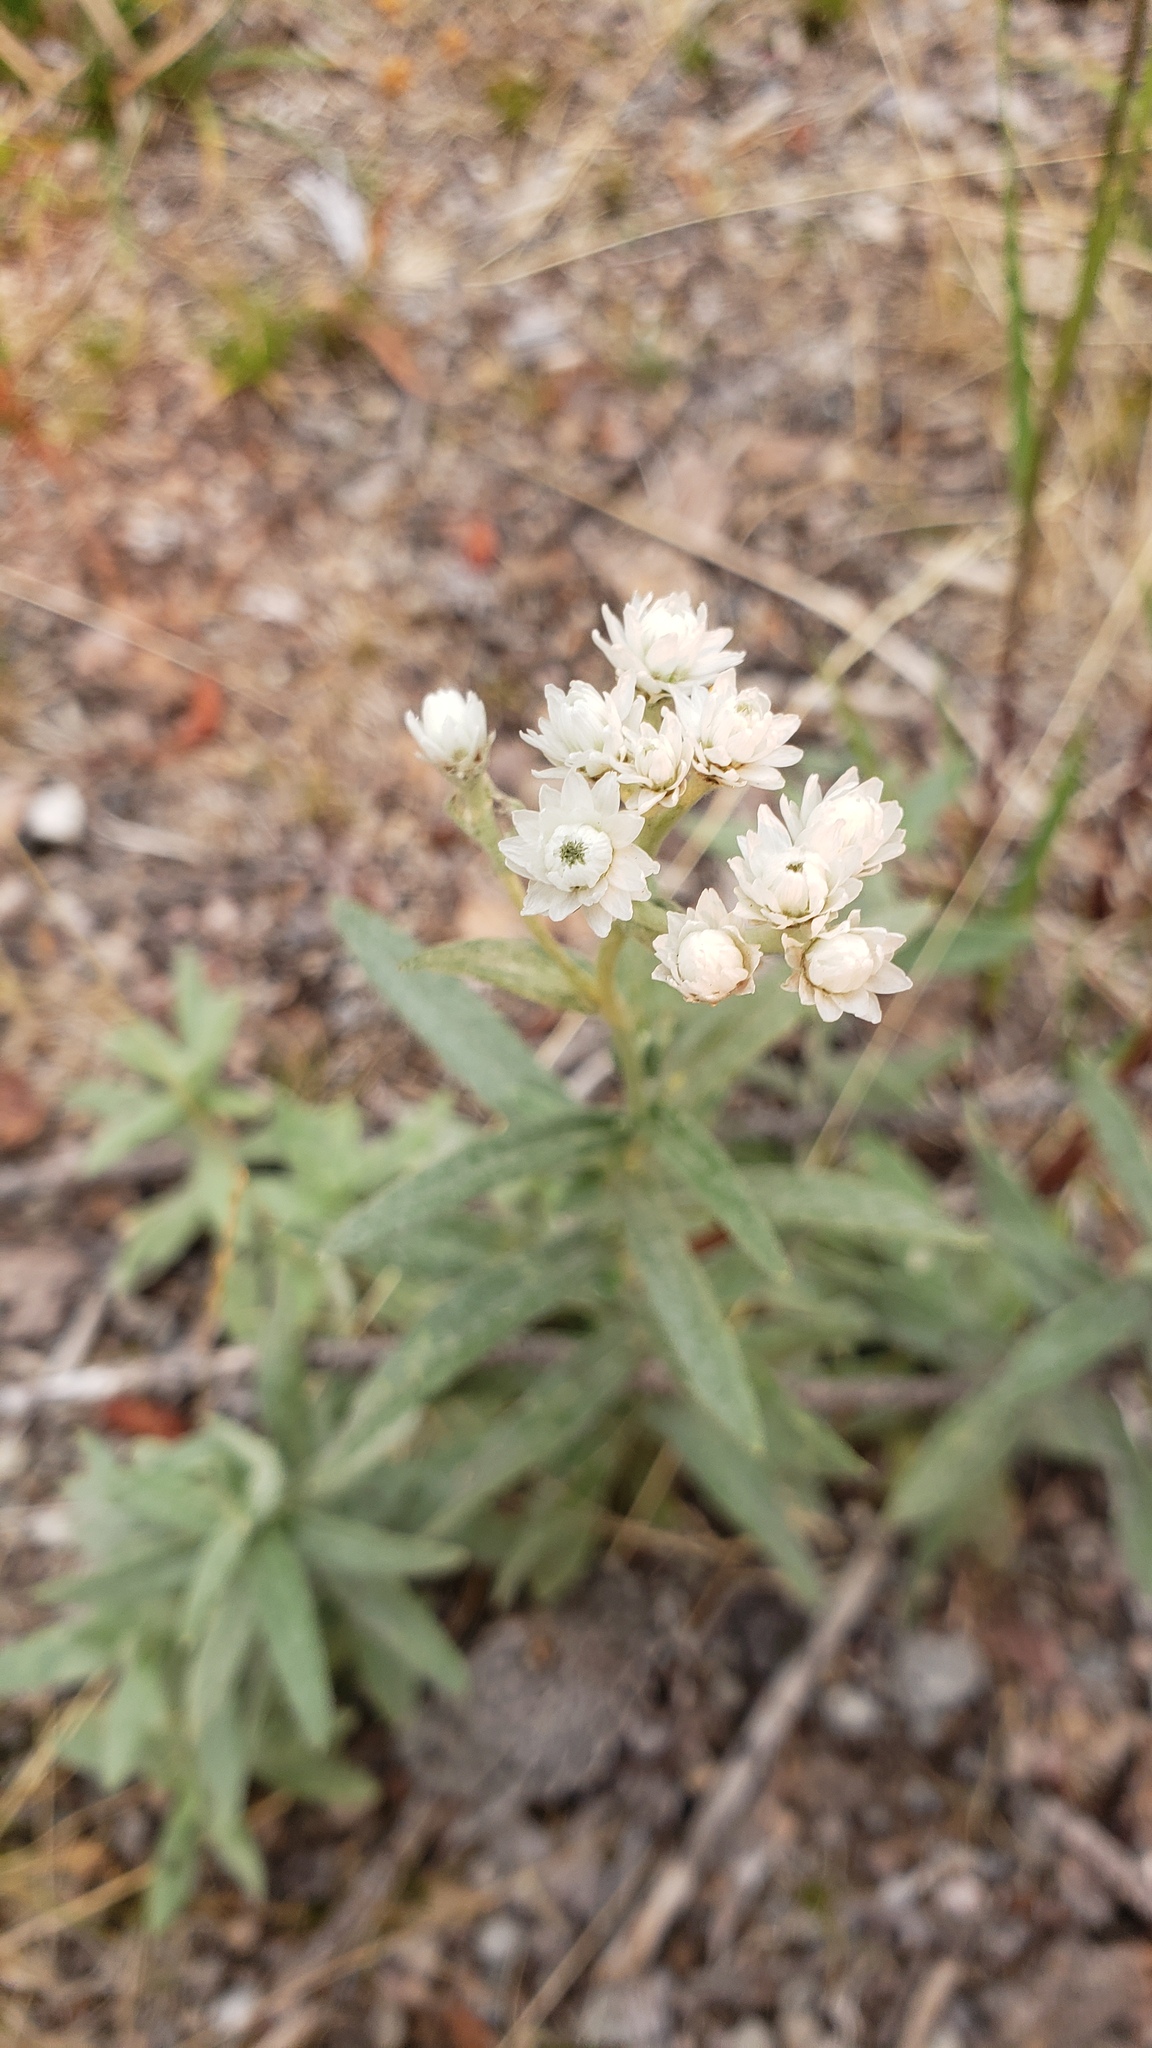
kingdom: Plantae
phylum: Tracheophyta
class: Magnoliopsida
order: Asterales
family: Asteraceae
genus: Anaphalis
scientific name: Anaphalis margaritacea
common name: Pearly everlasting
